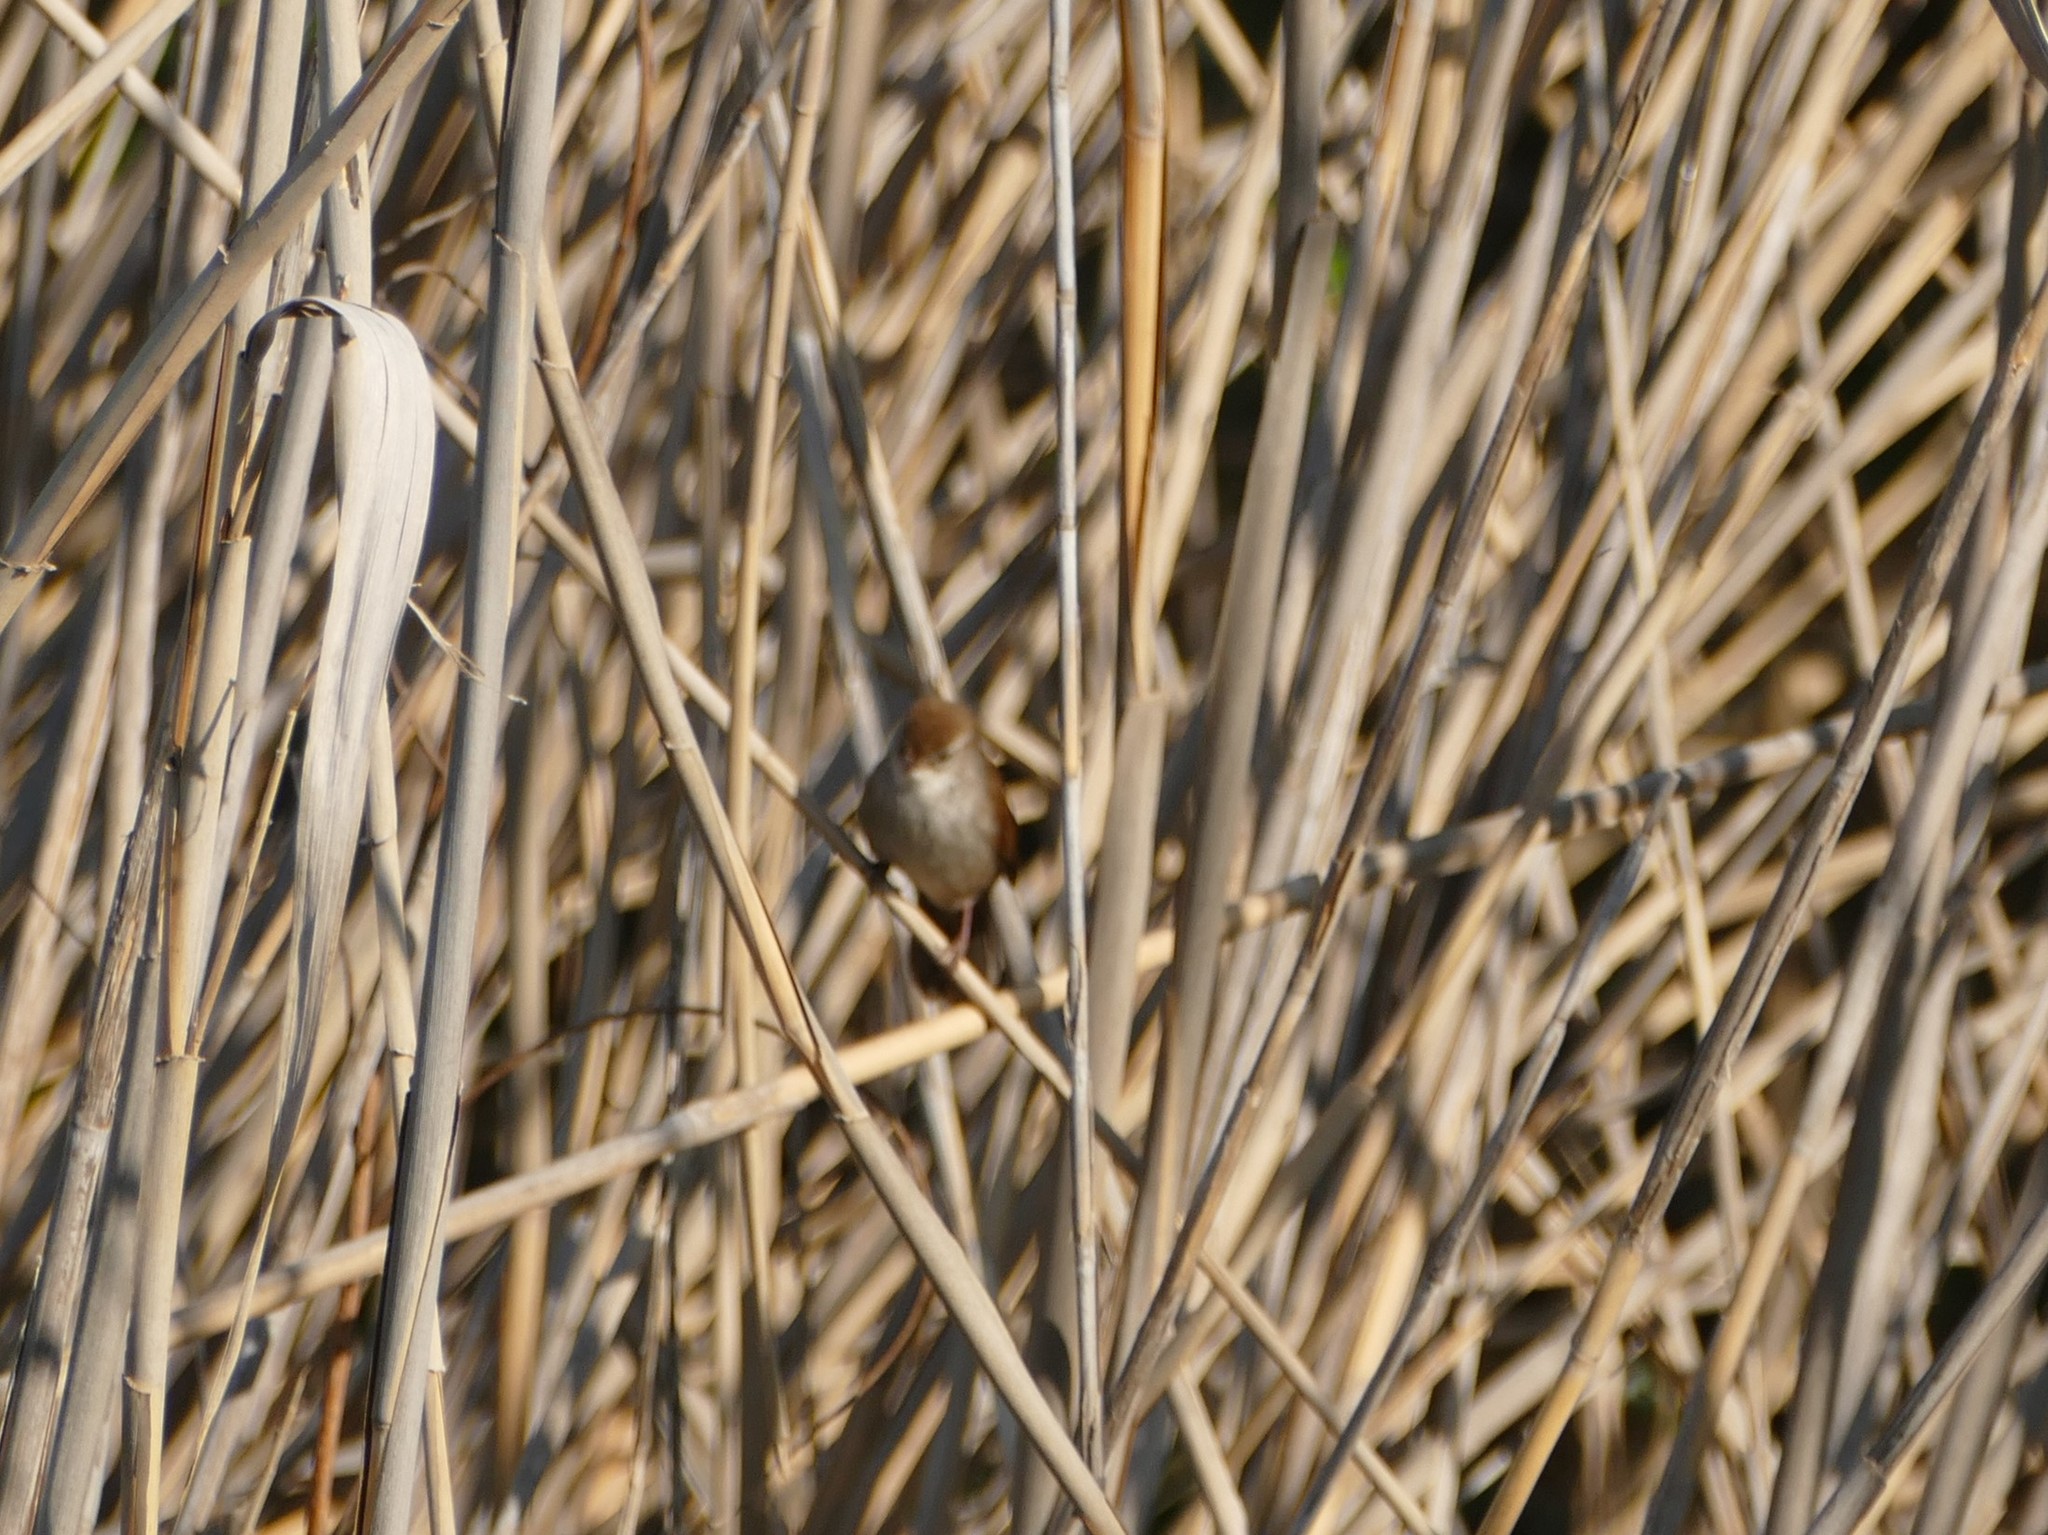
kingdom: Animalia
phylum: Chordata
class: Aves
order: Passeriformes
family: Cettiidae
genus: Cettia
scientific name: Cettia cetti
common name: Cetti's warbler
